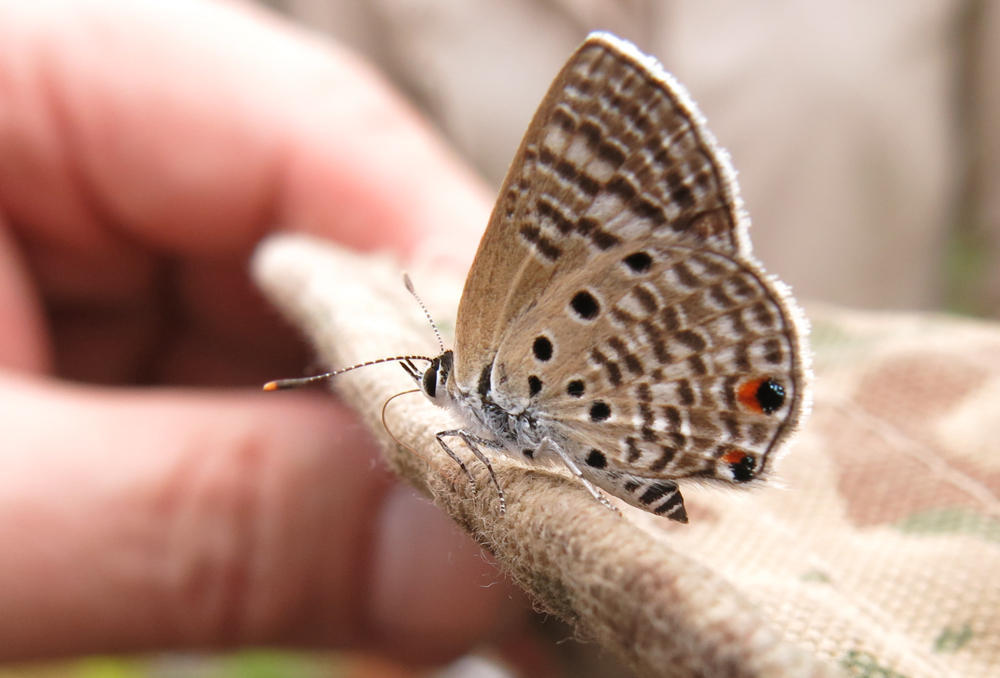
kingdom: Animalia
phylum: Arthropoda
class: Insecta
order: Lepidoptera
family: Lycaenidae
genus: Anthene
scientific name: Anthene amarah
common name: Black-striped hairtail
